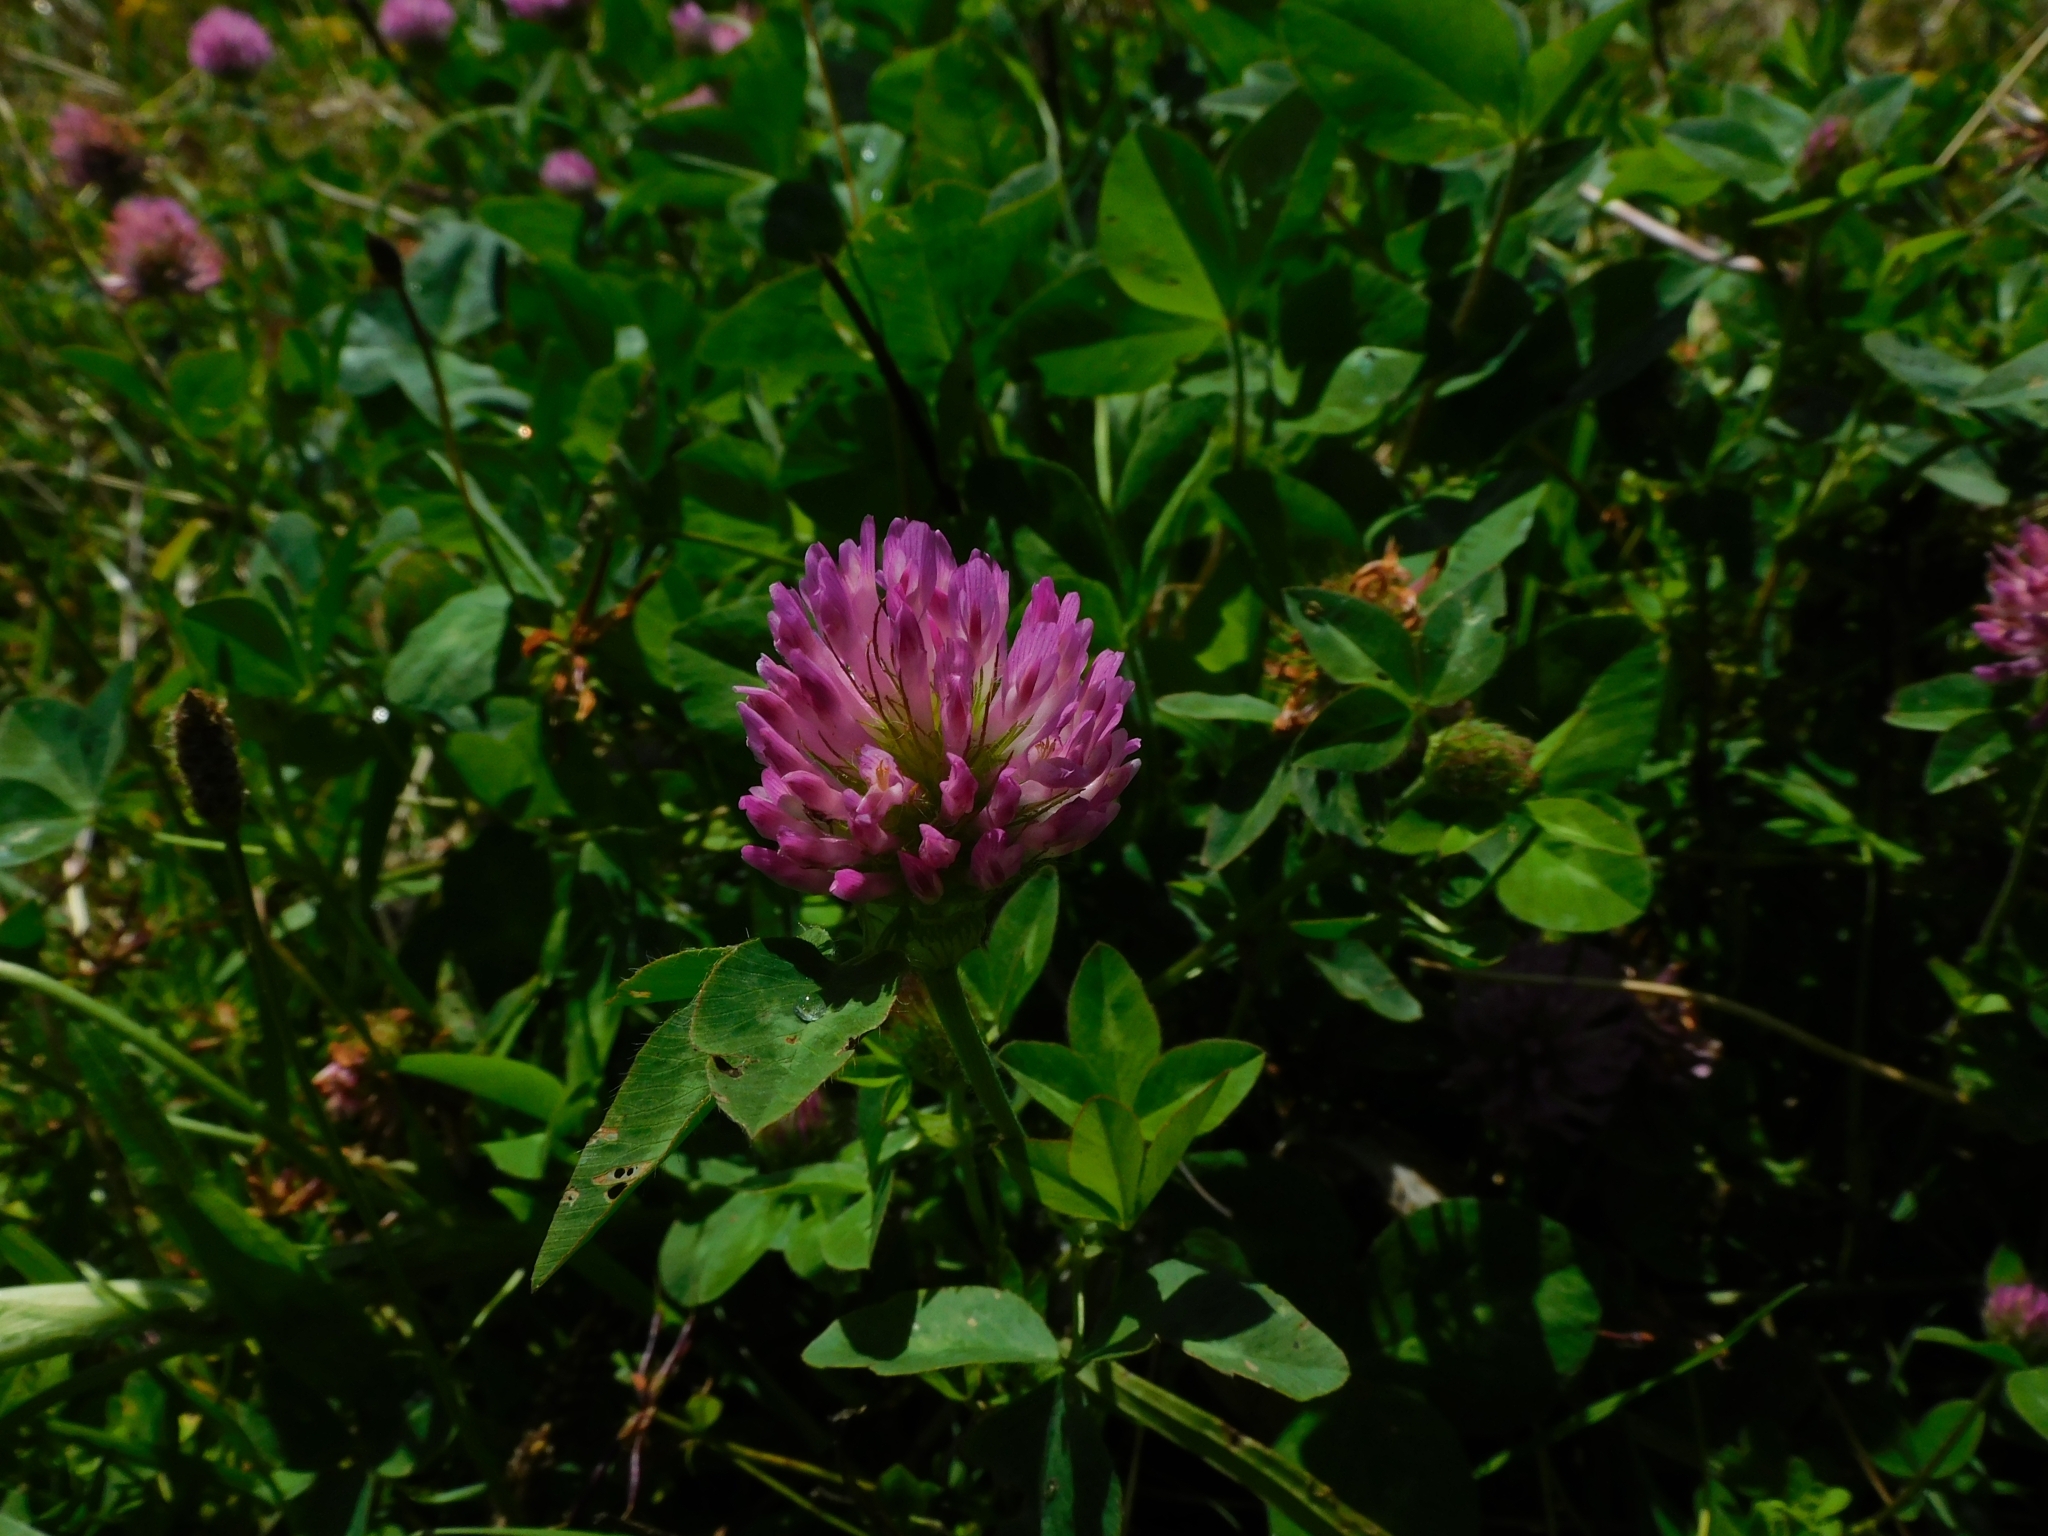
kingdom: Plantae
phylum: Tracheophyta
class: Magnoliopsida
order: Fabales
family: Fabaceae
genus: Trifolium
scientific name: Trifolium pratense
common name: Red clover
